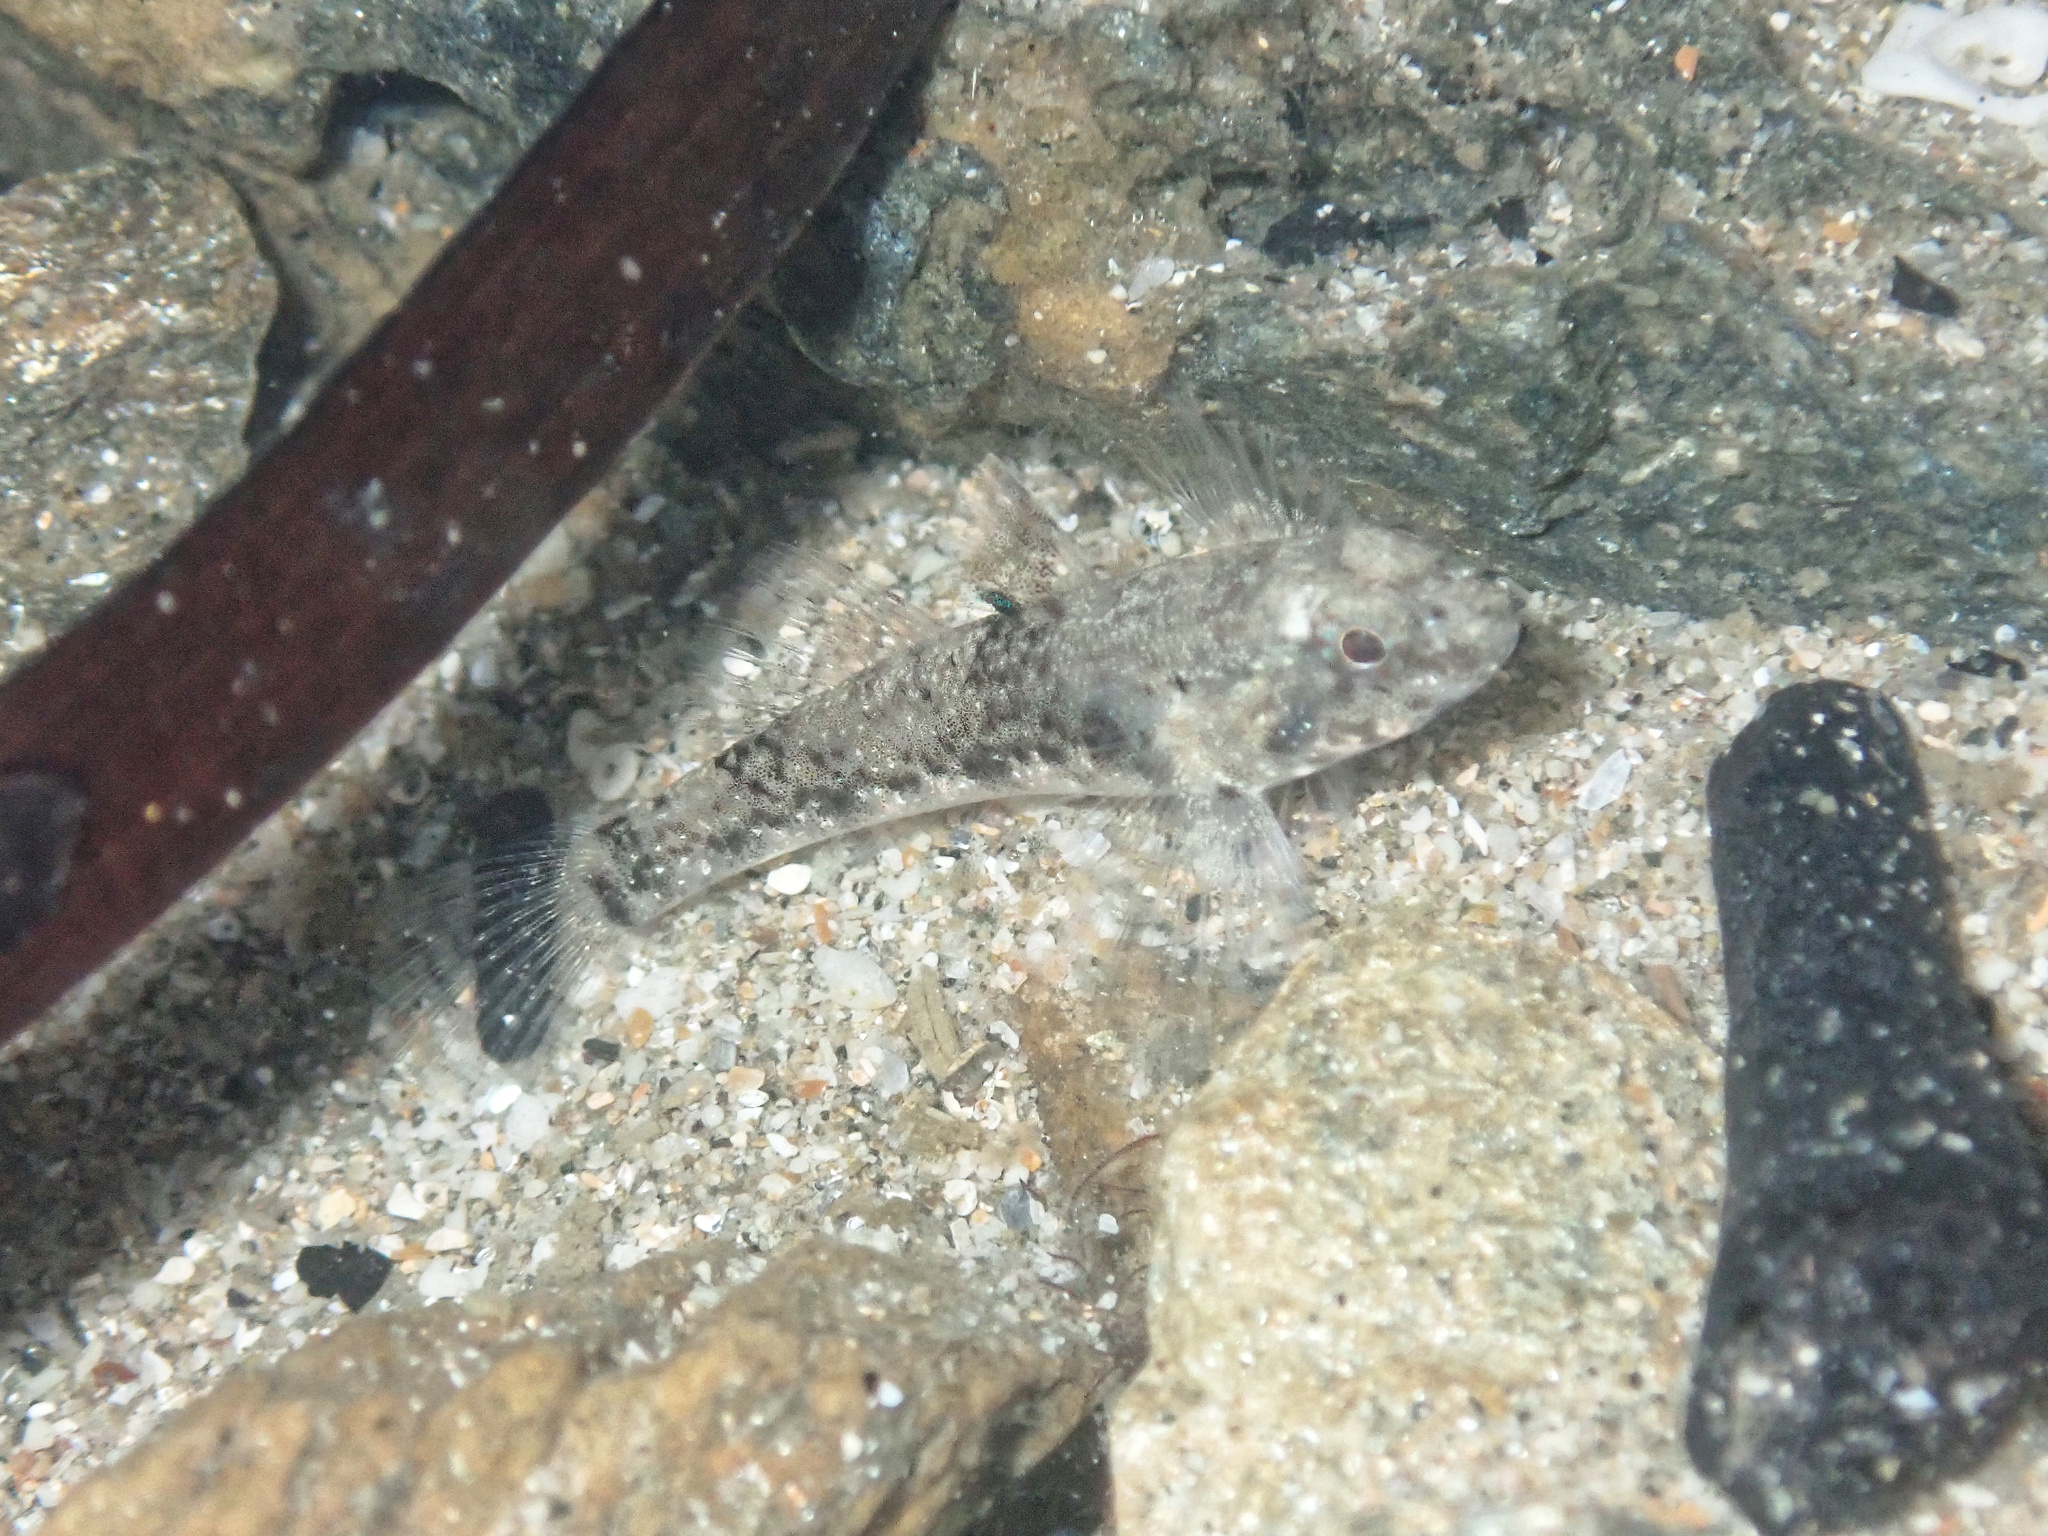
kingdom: Animalia
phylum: Chordata
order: Perciformes
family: Gobiidae
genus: Bathygobius
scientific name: Bathygobius fuscus
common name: Dusky frillgoby
